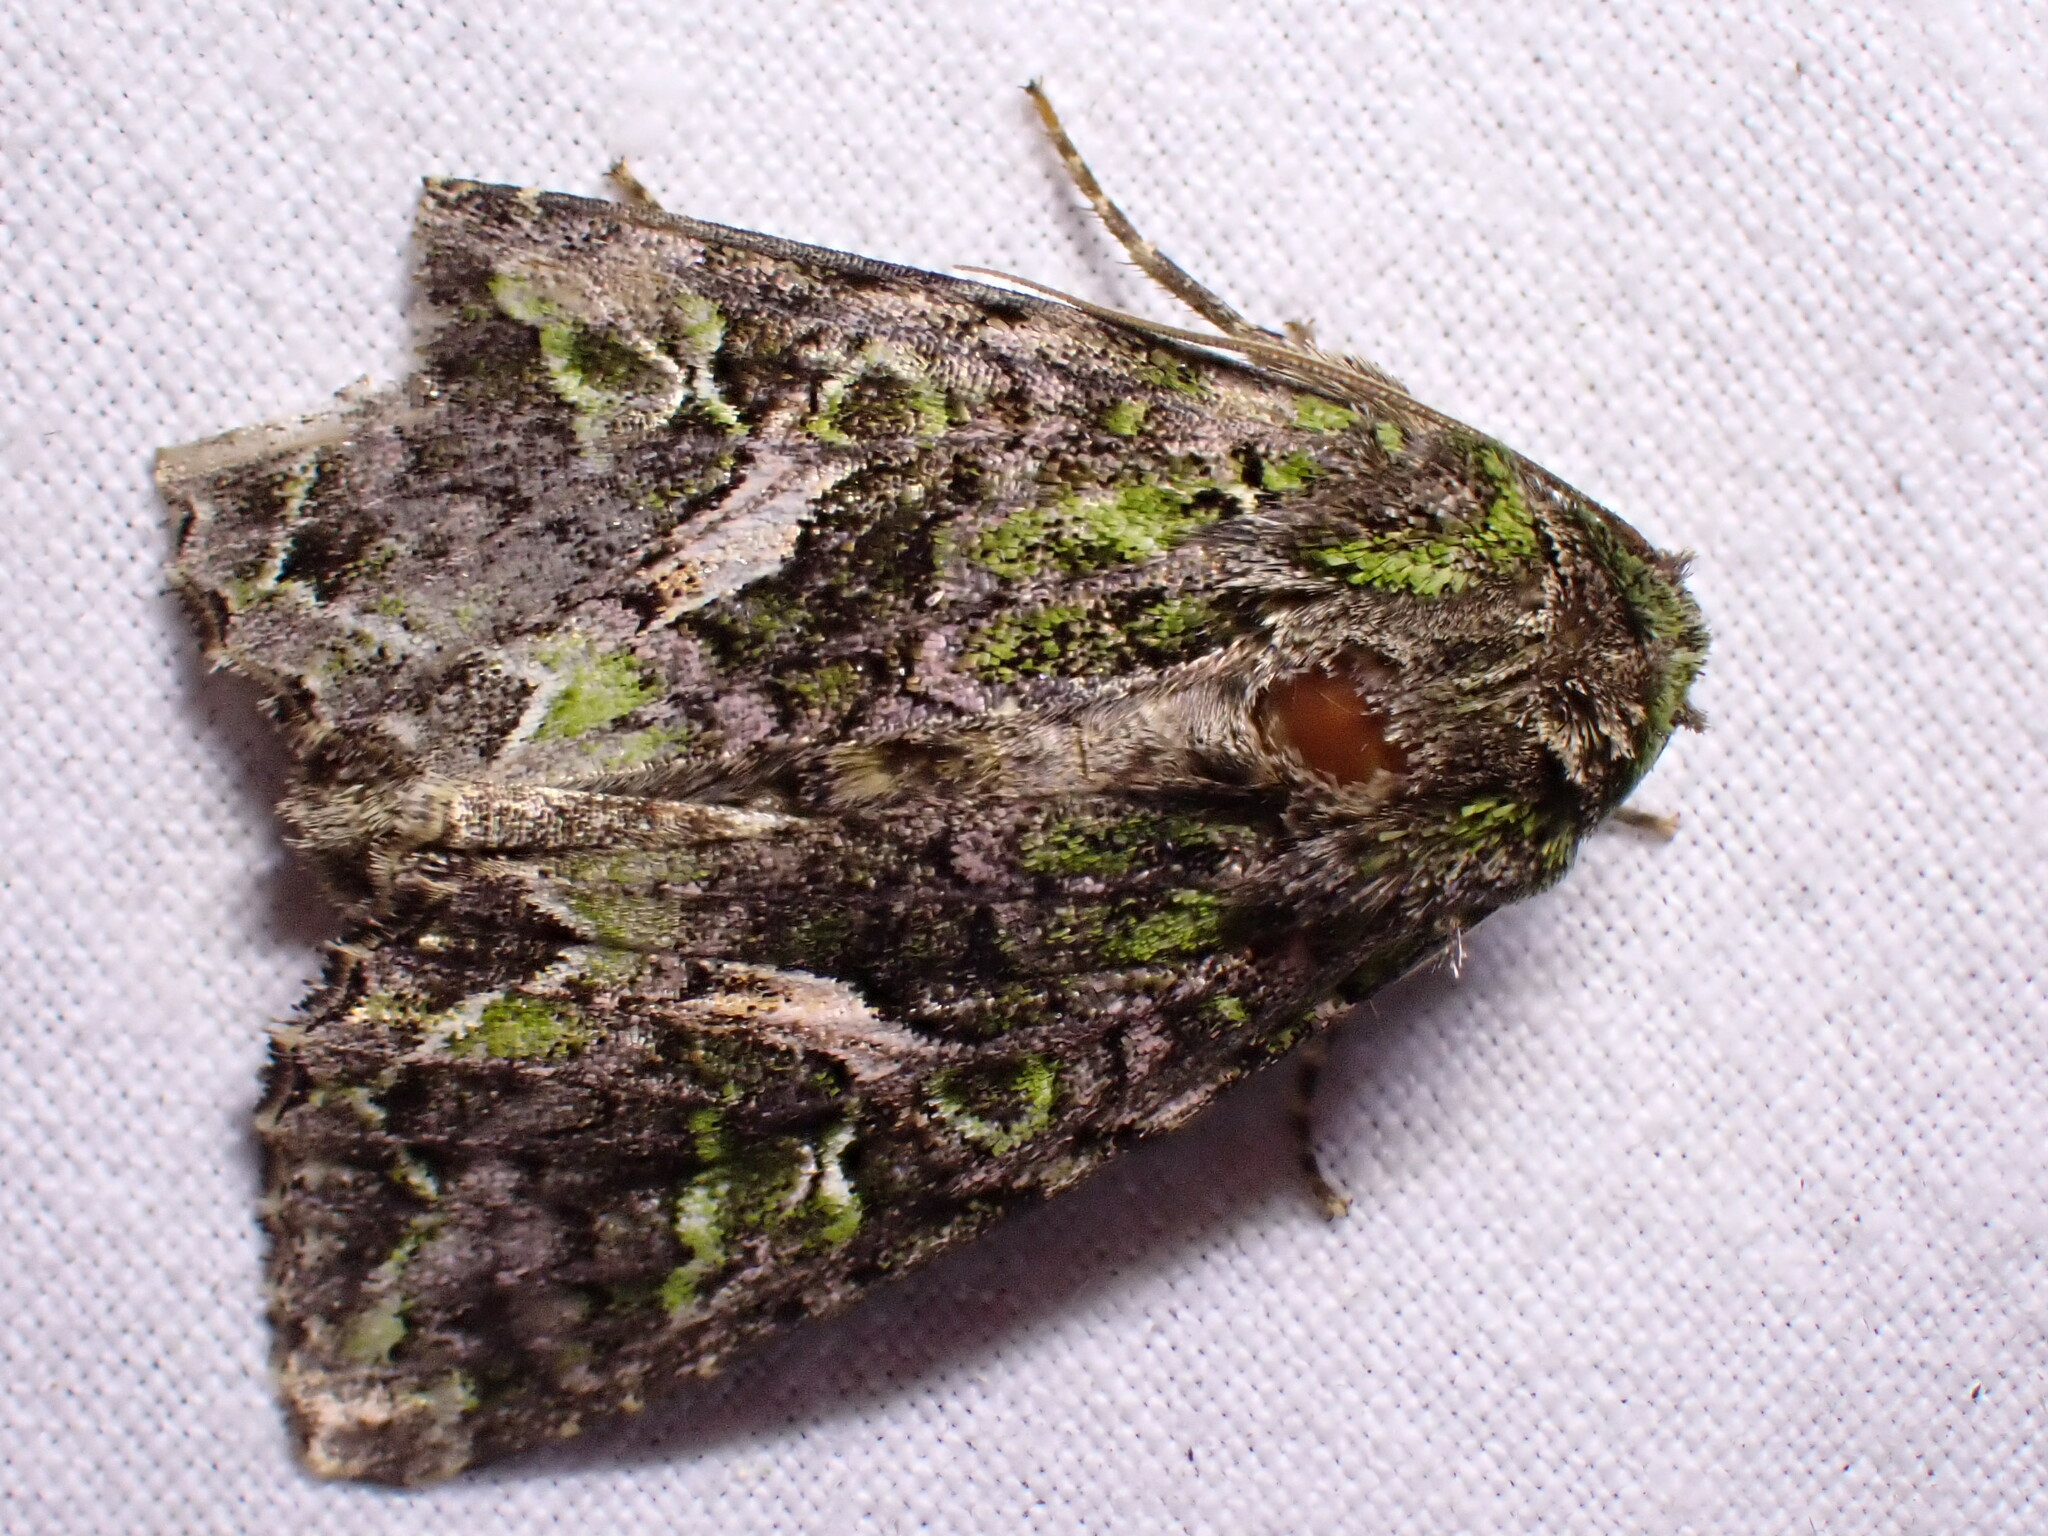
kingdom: Animalia
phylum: Arthropoda
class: Insecta
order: Lepidoptera
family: Noctuidae
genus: Trachea
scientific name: Trachea atriplicis
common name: Orache moth
